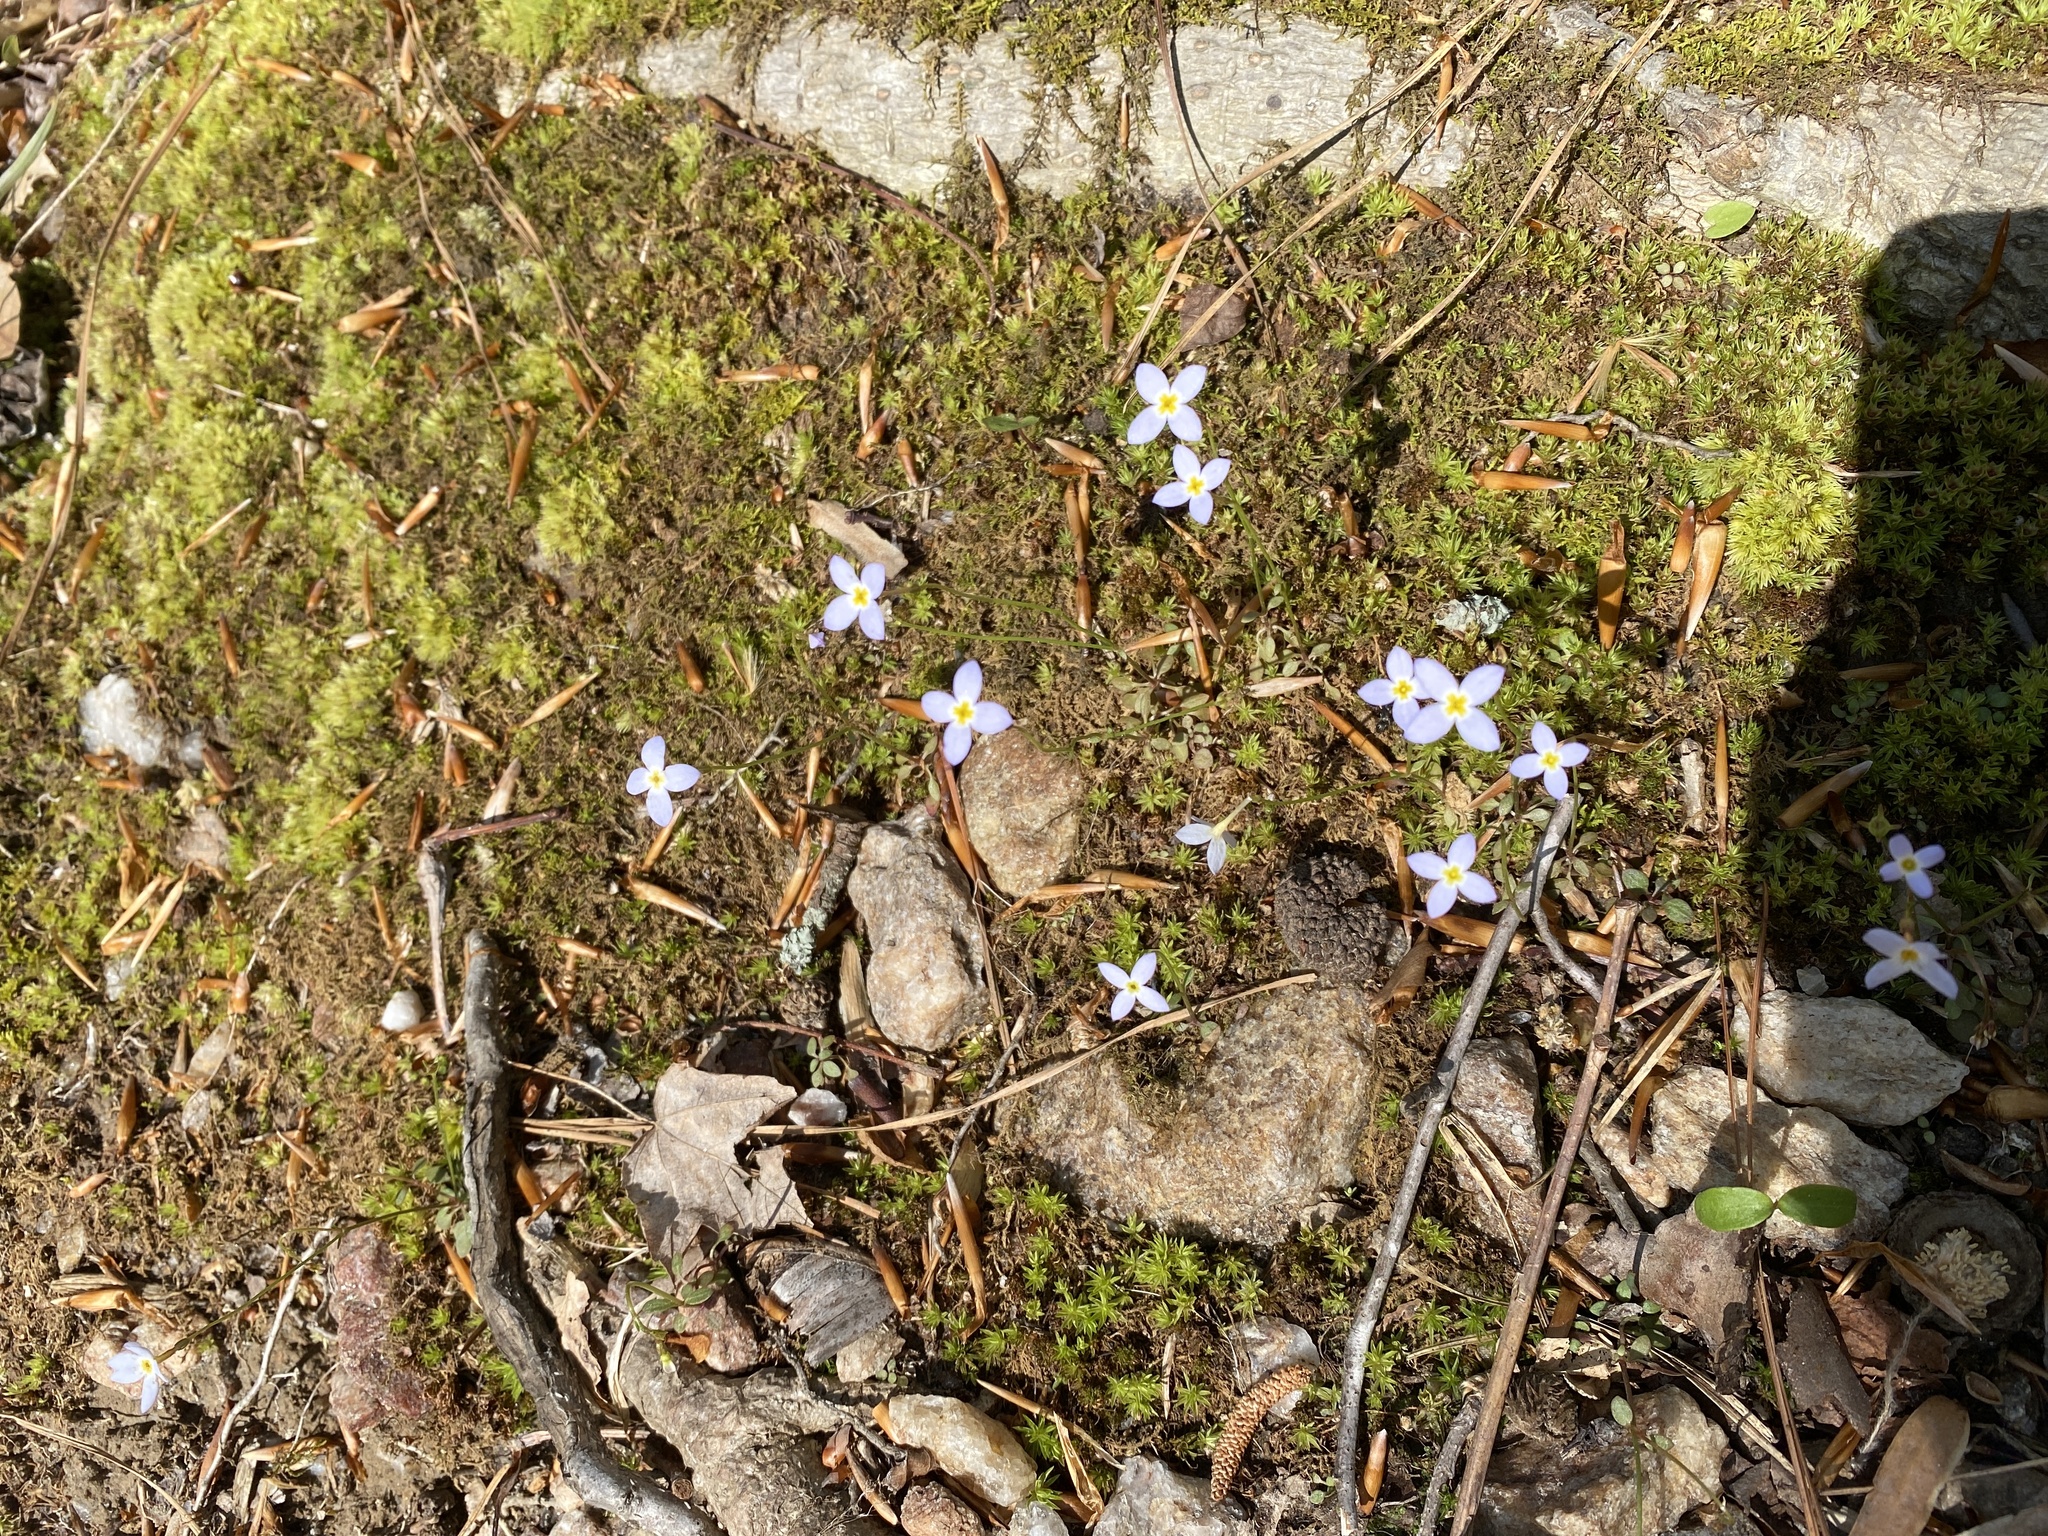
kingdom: Plantae
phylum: Tracheophyta
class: Magnoliopsida
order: Gentianales
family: Rubiaceae
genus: Houstonia
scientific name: Houstonia caerulea
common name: Bluets
